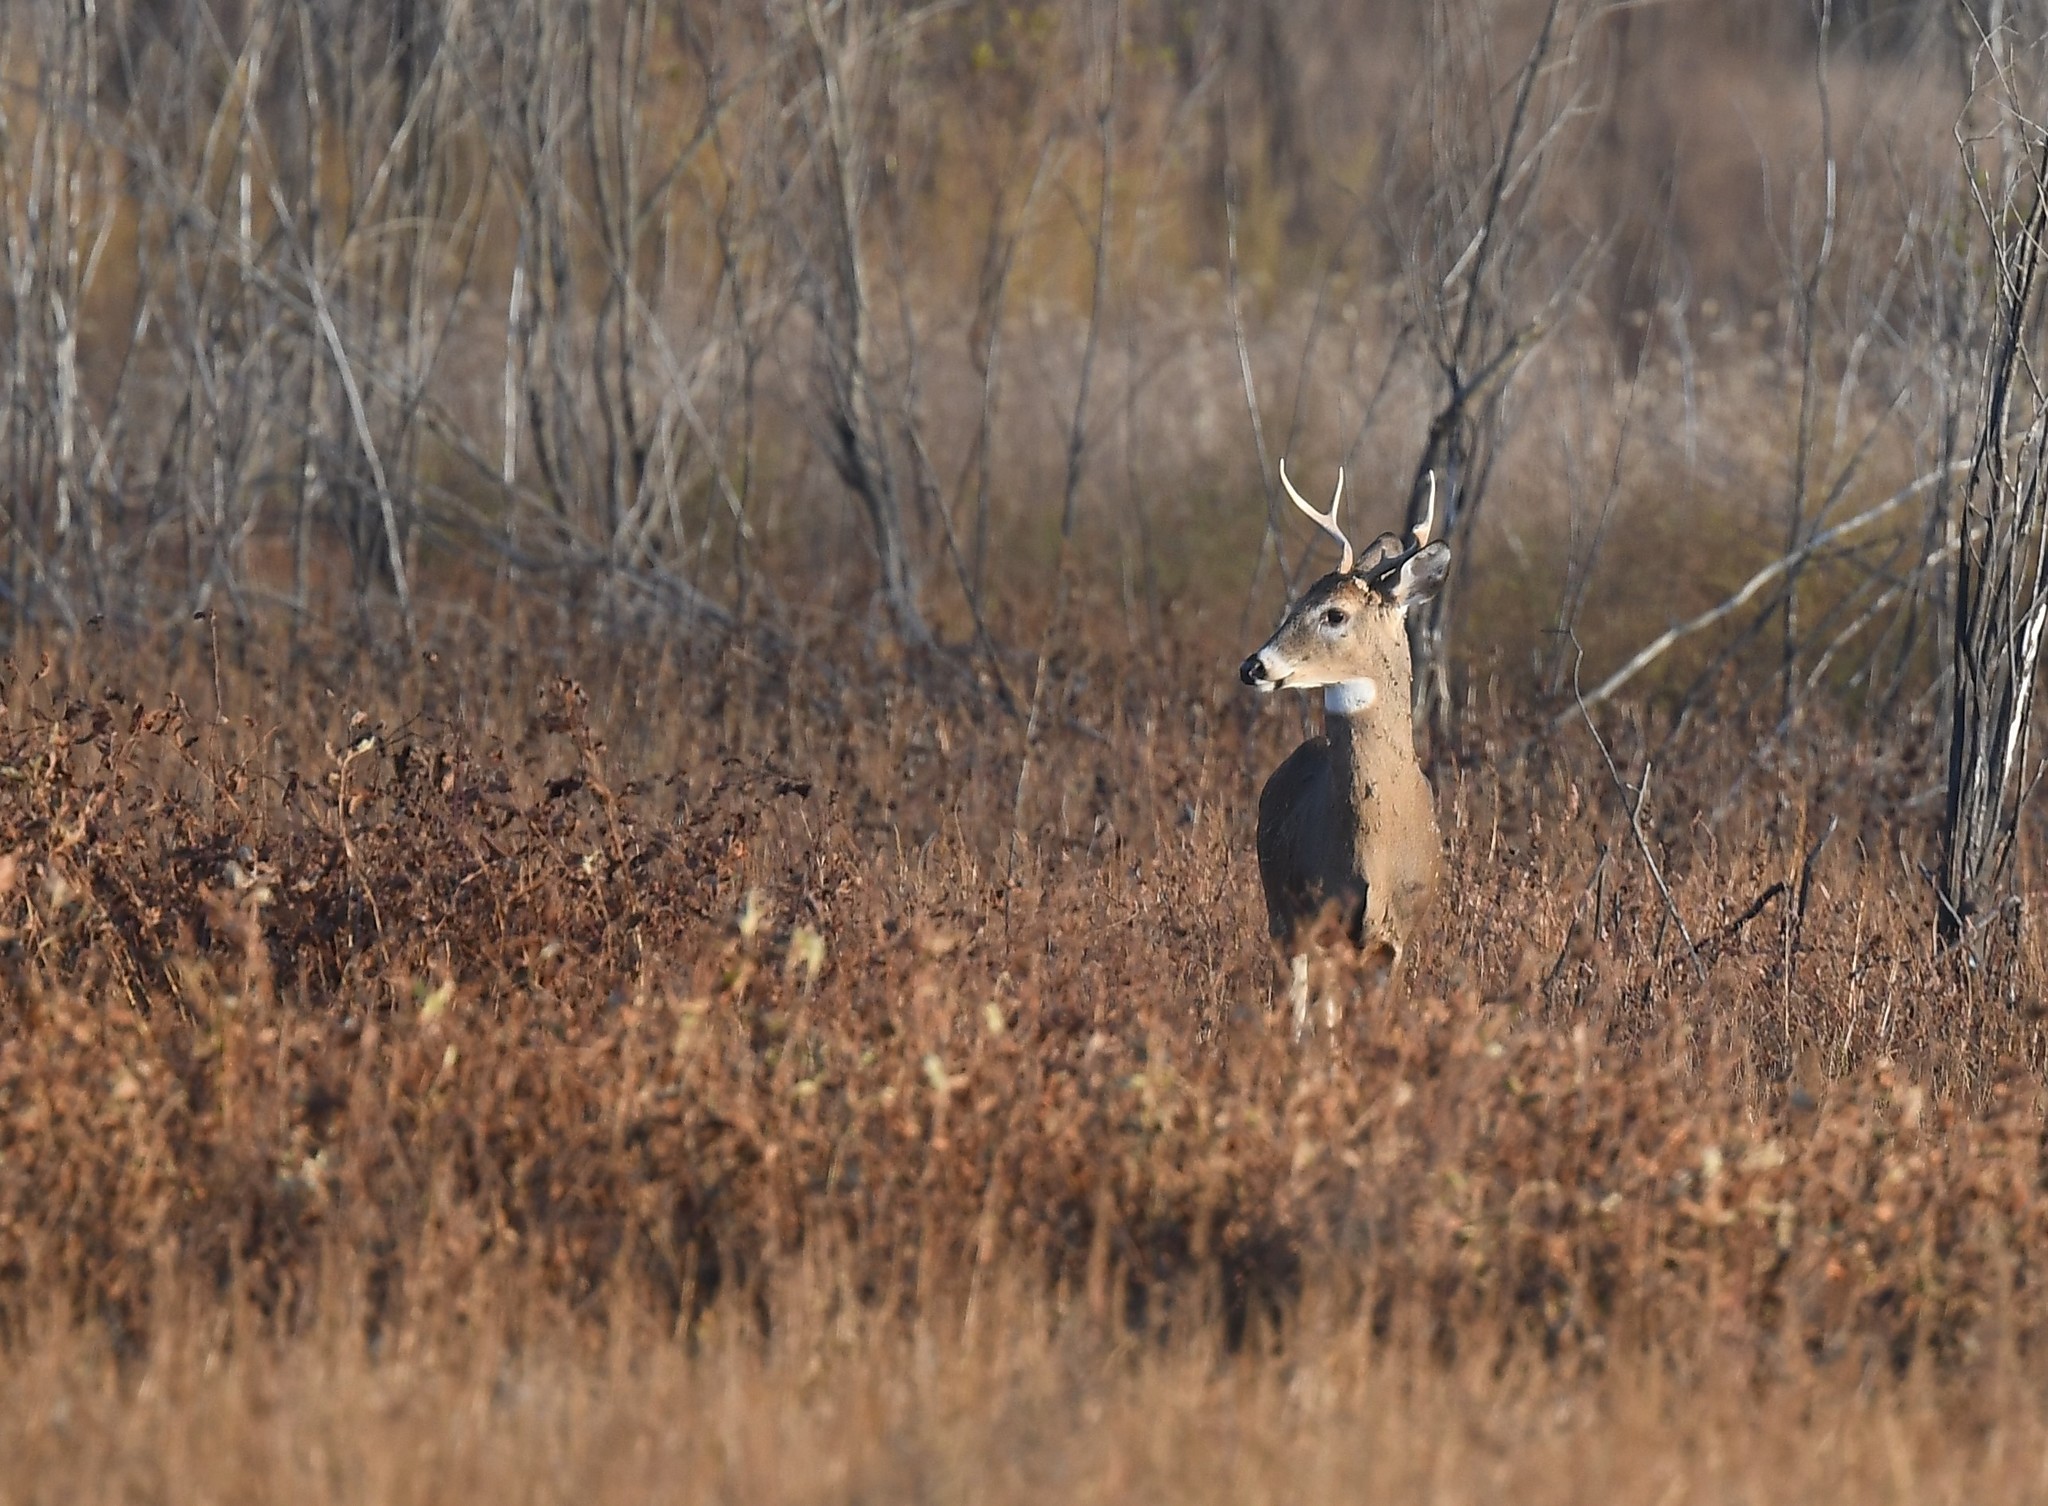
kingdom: Animalia
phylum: Chordata
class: Mammalia
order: Artiodactyla
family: Cervidae
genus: Odocoileus
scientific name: Odocoileus virginianus
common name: White-tailed deer
